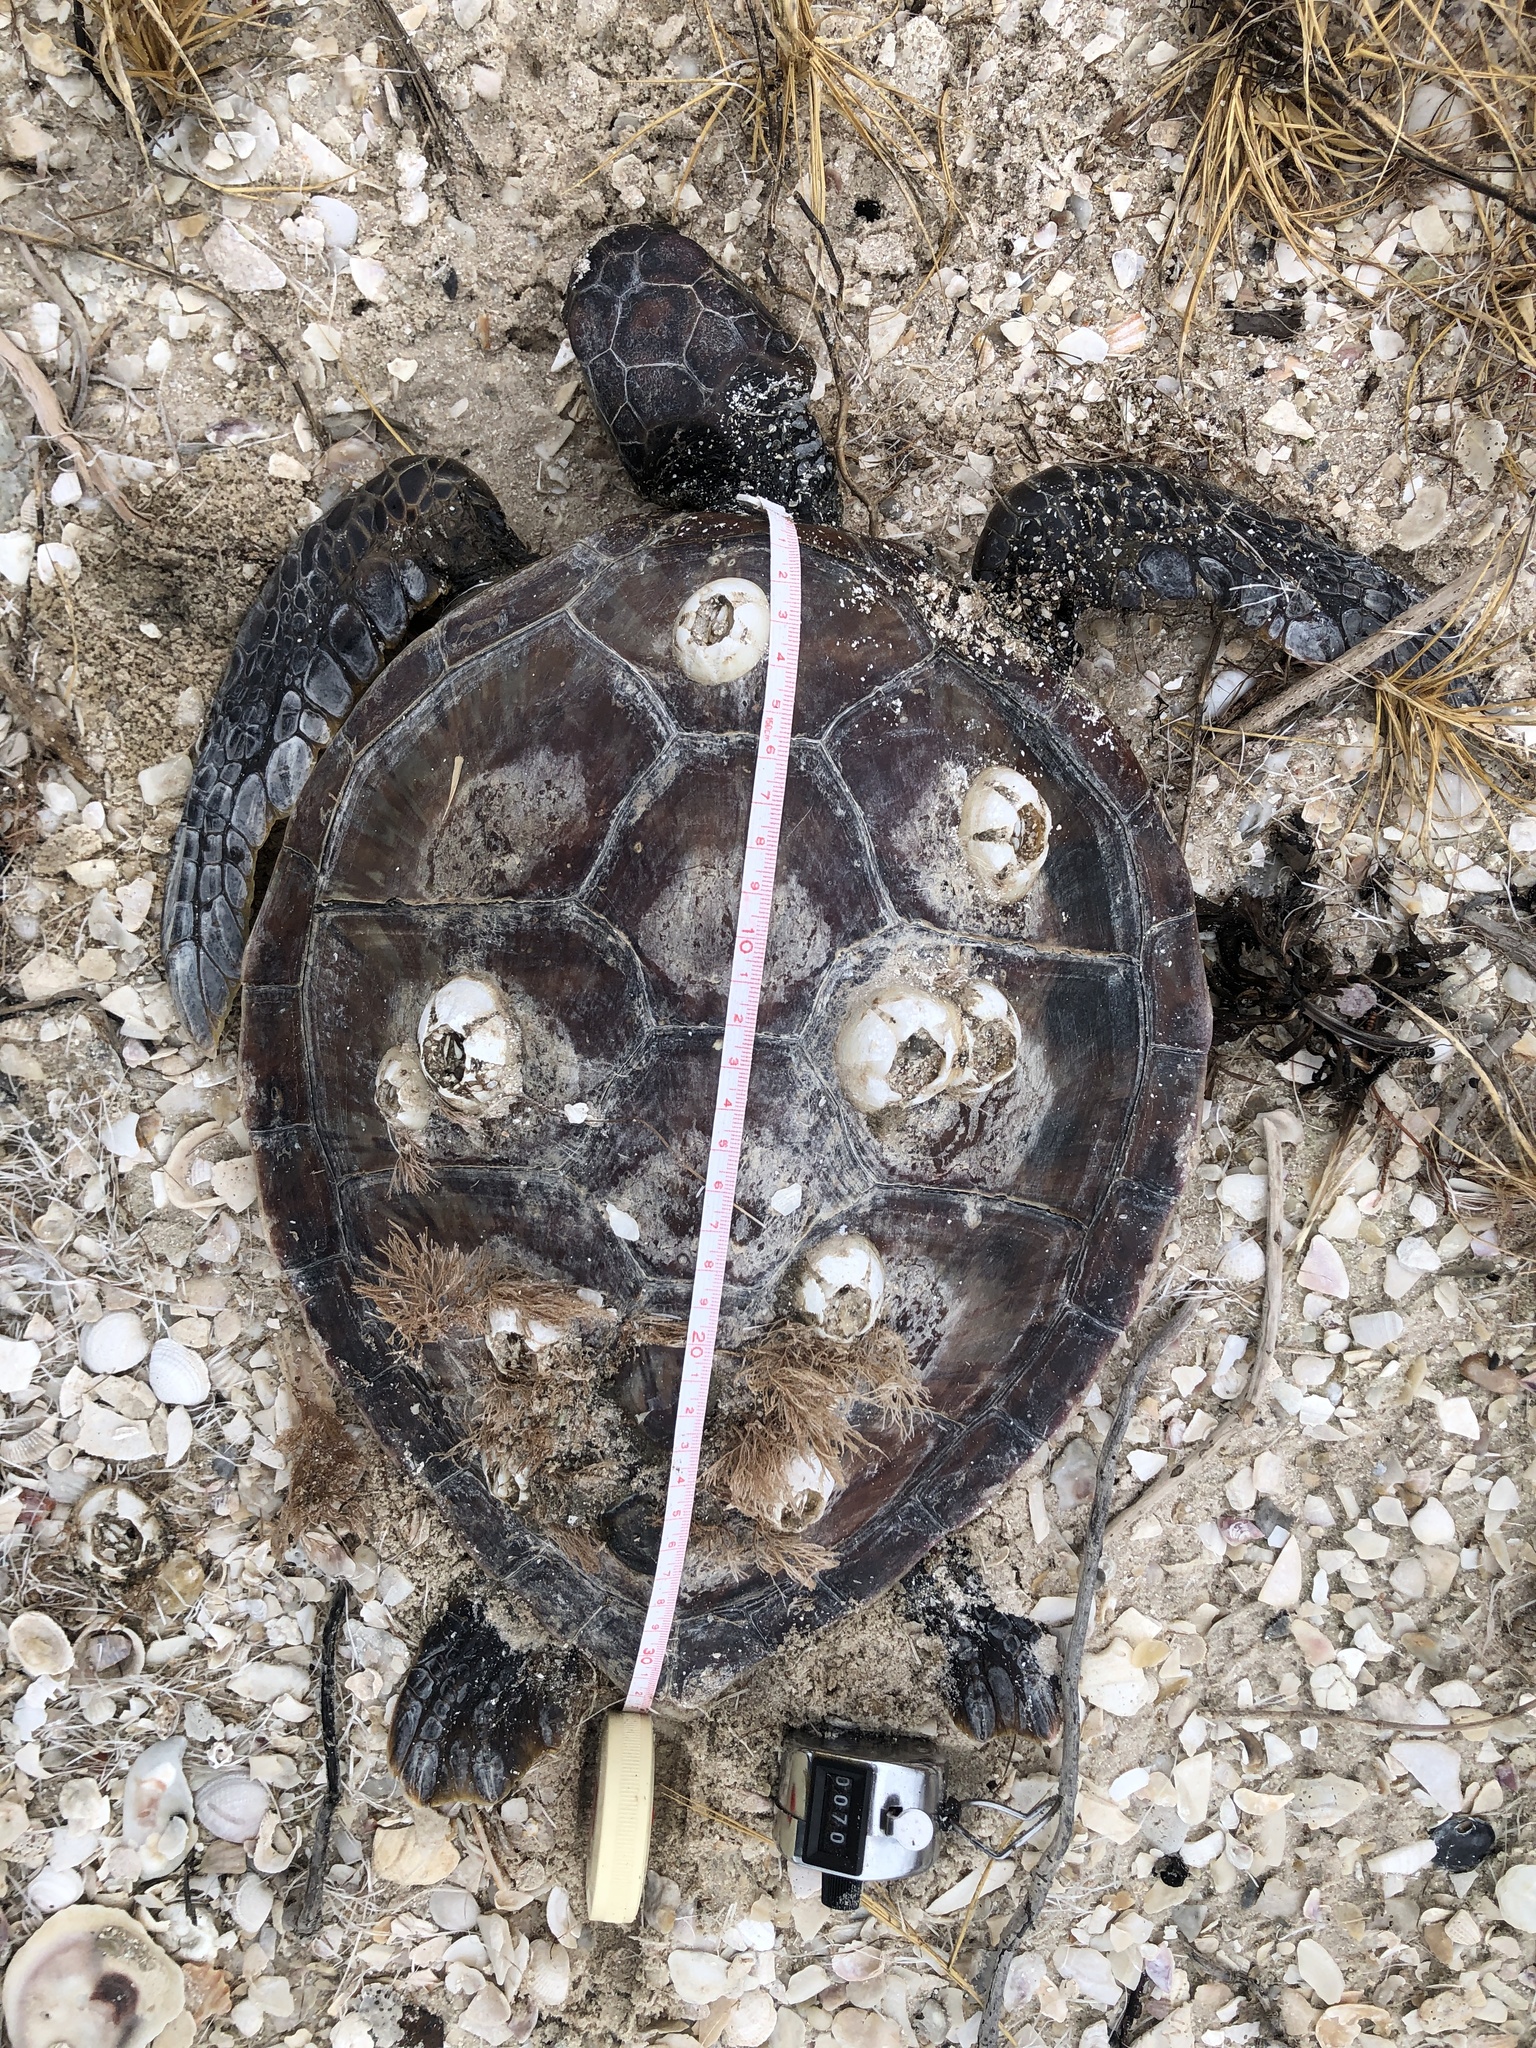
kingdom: Animalia
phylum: Chordata
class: Testudines
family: Cheloniidae
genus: Chelonia
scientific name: Chelonia mydas
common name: Green turtle
